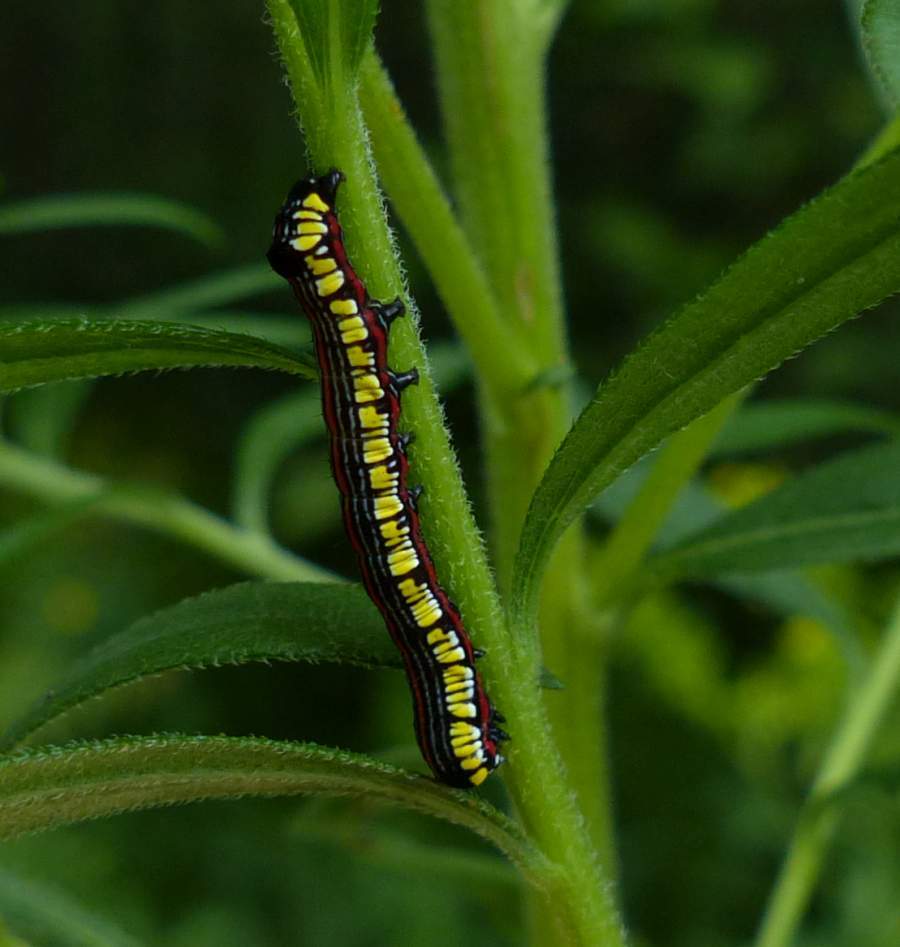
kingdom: Animalia
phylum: Arthropoda
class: Insecta
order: Lepidoptera
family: Noctuidae
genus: Cucullia
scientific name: Cucullia convexipennis
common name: Brown-hooded owlet
